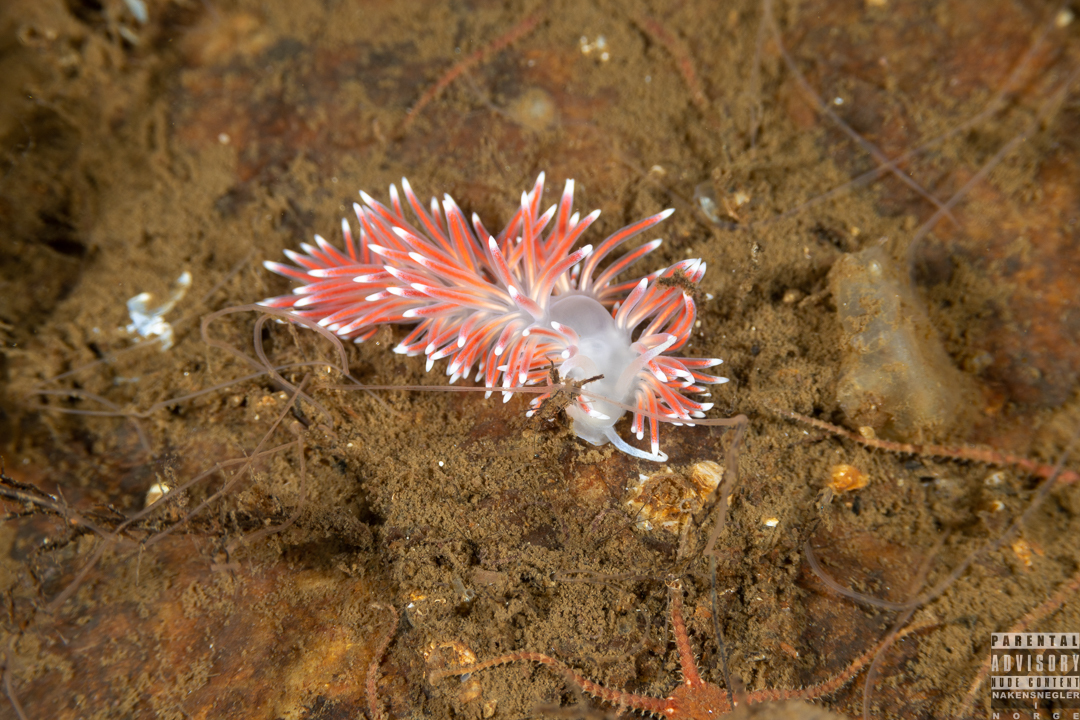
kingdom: Animalia
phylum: Mollusca
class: Gastropoda
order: Nudibranchia
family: Flabellinidae
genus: Carronella
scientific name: Carronella pellucida
